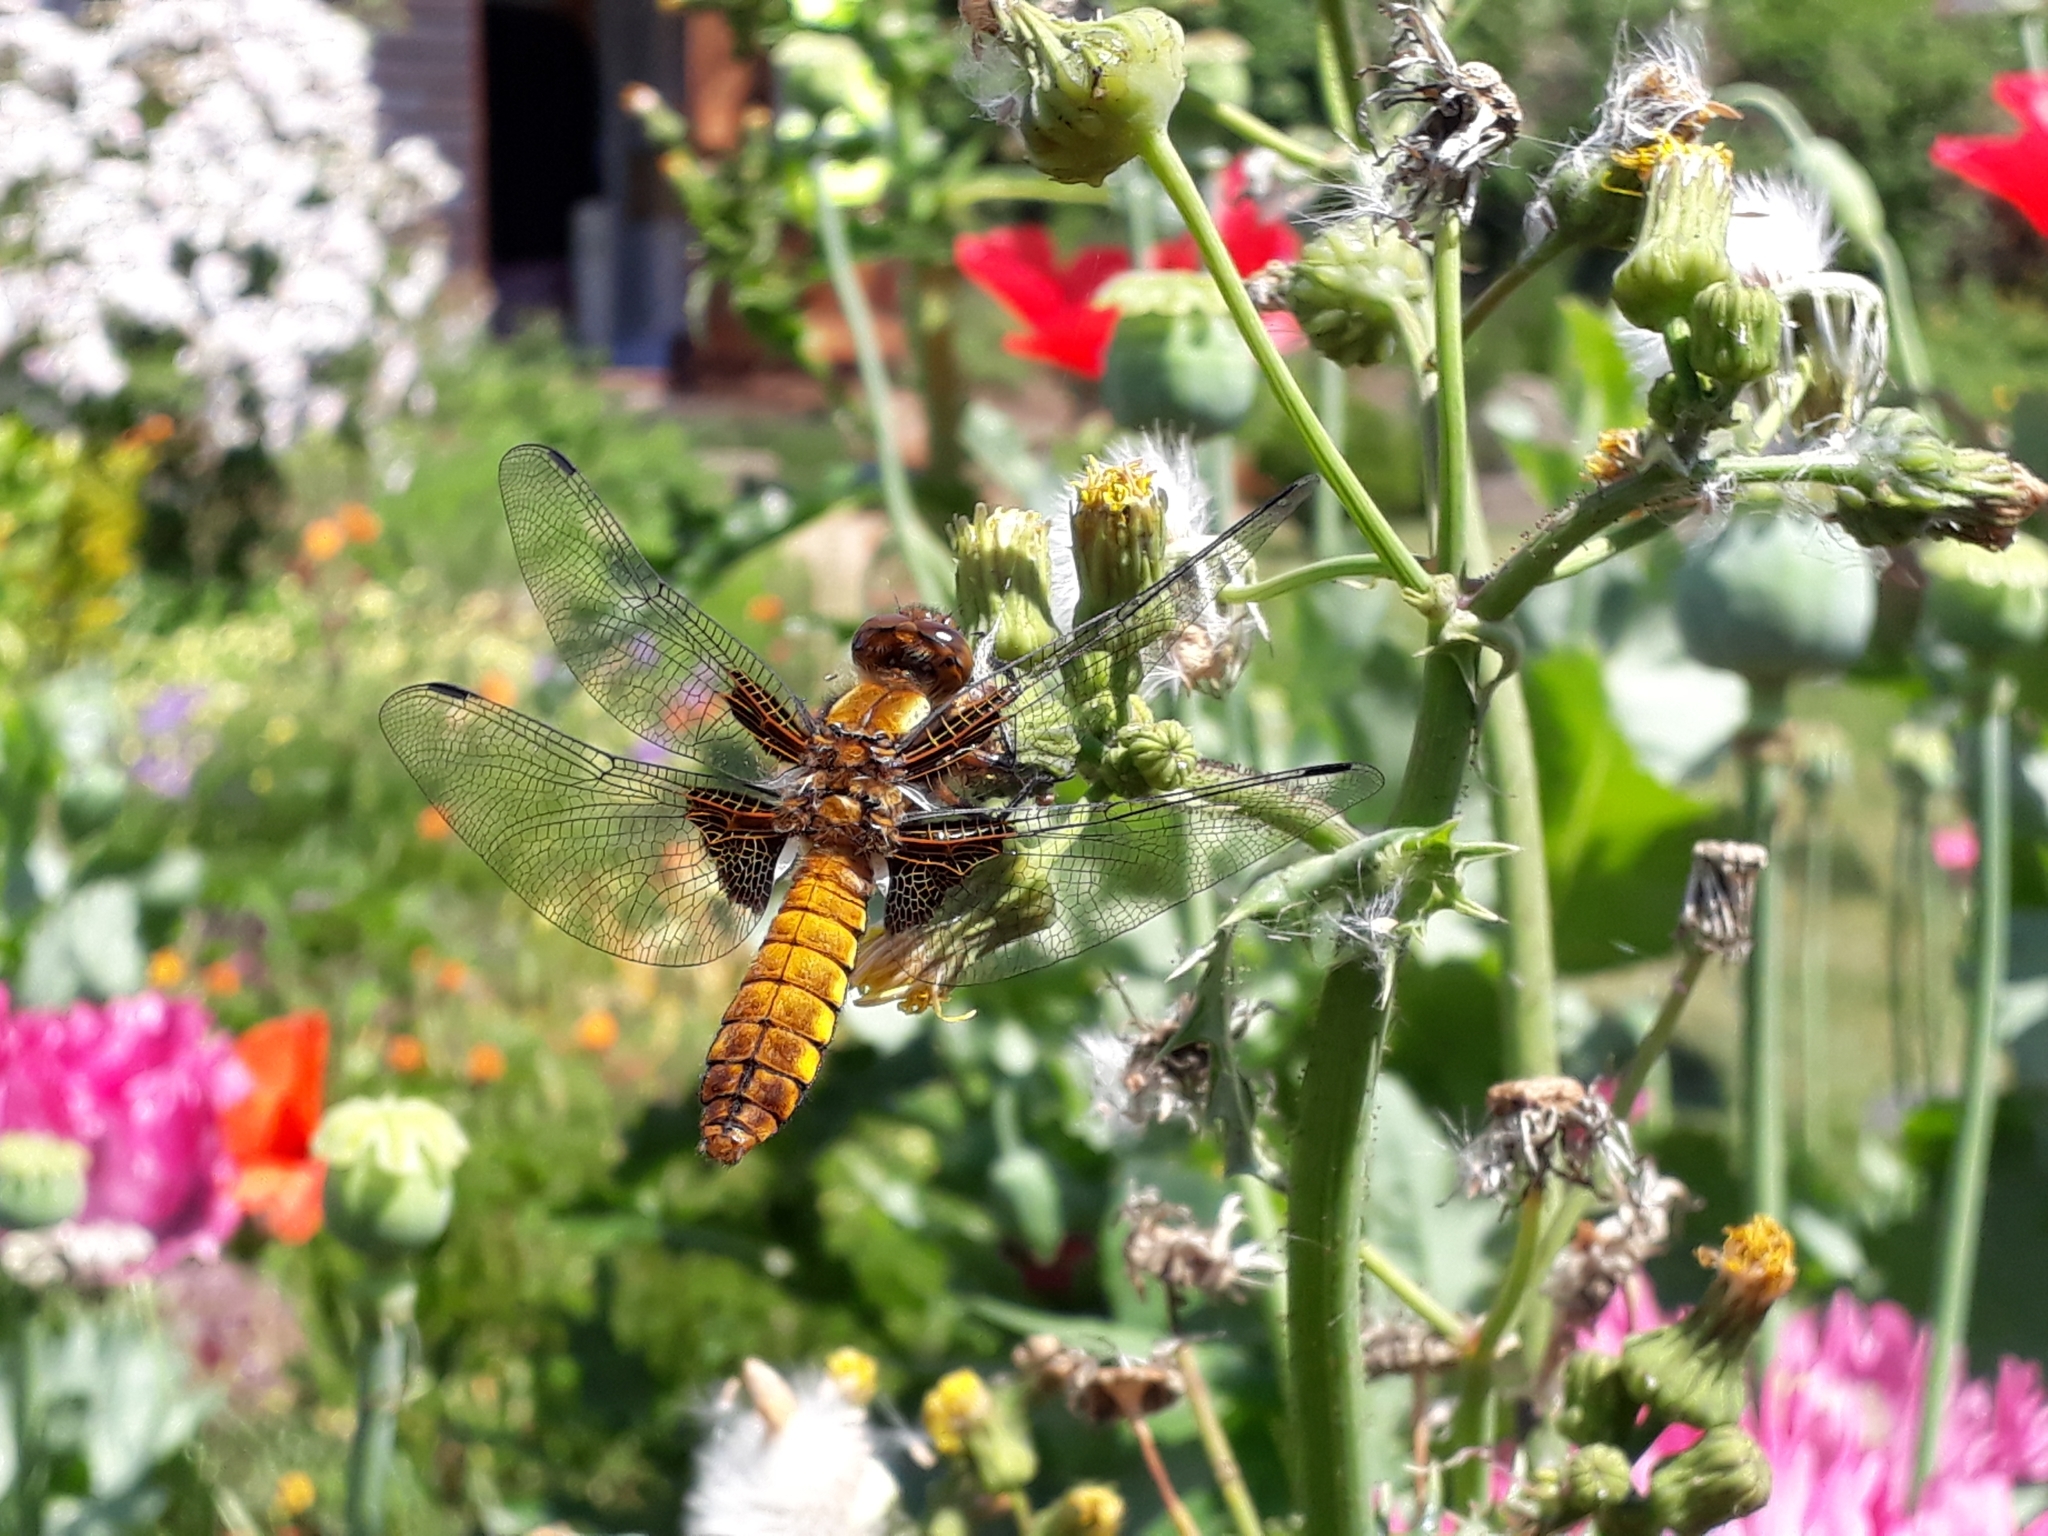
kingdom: Animalia
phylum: Arthropoda
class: Insecta
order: Odonata
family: Libellulidae
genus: Libellula
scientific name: Libellula depressa
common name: Broad-bodied chaser
